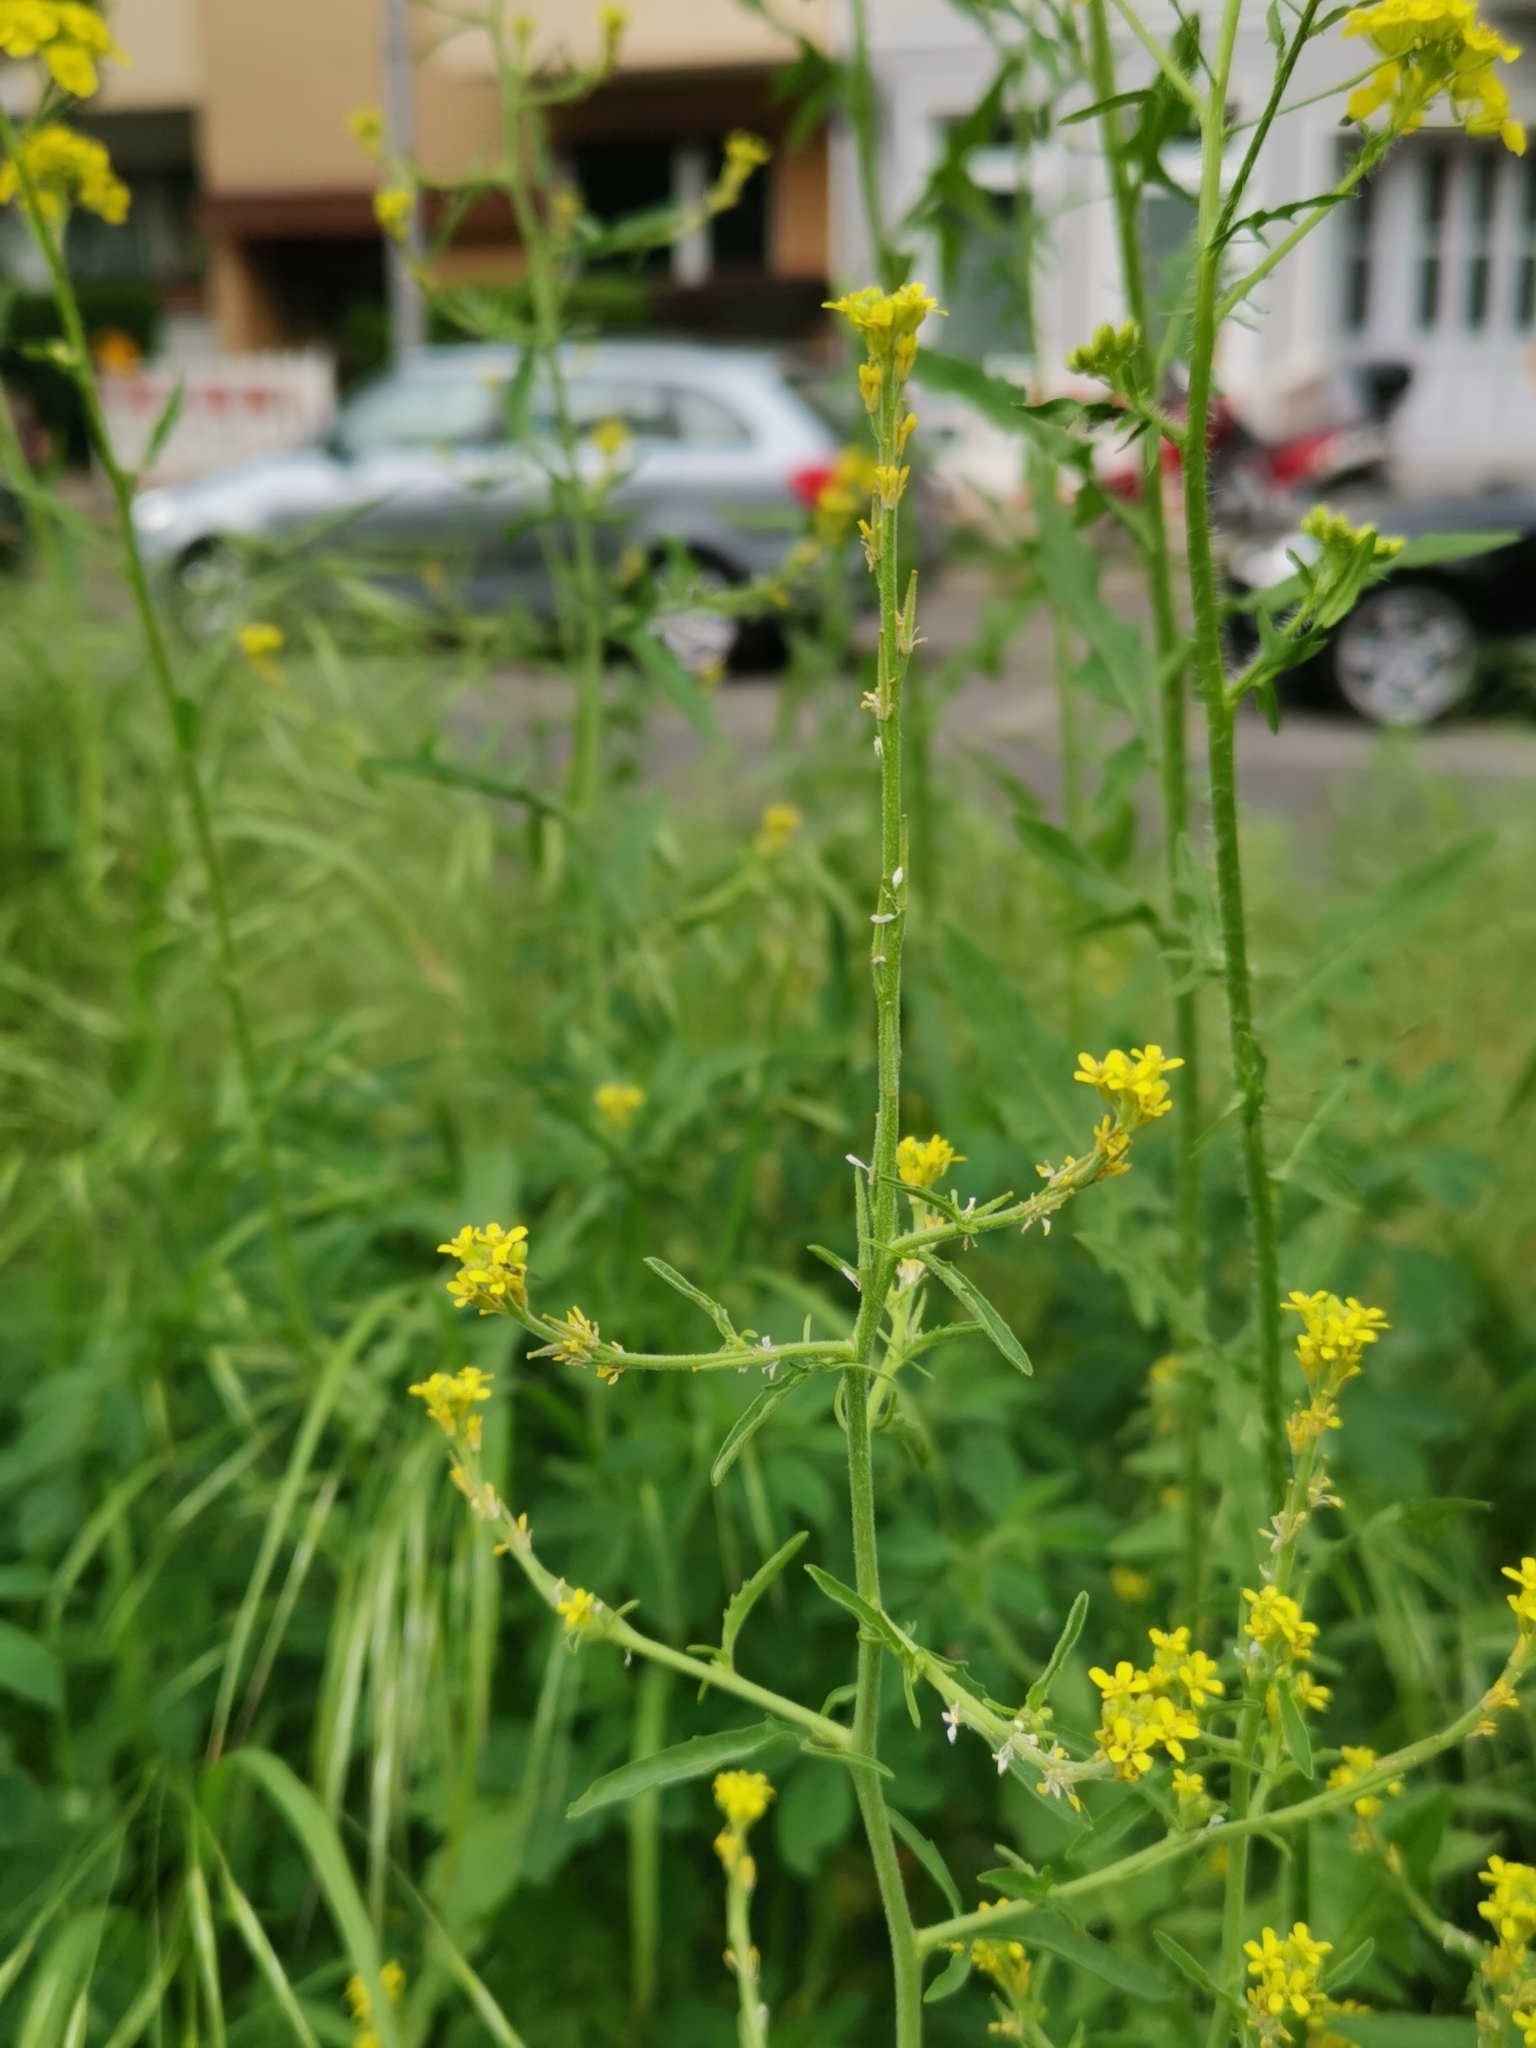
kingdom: Plantae
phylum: Tracheophyta
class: Magnoliopsida
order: Brassicales
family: Brassicaceae
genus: Sisymbrium
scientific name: Sisymbrium officinale
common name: Hedge mustard
